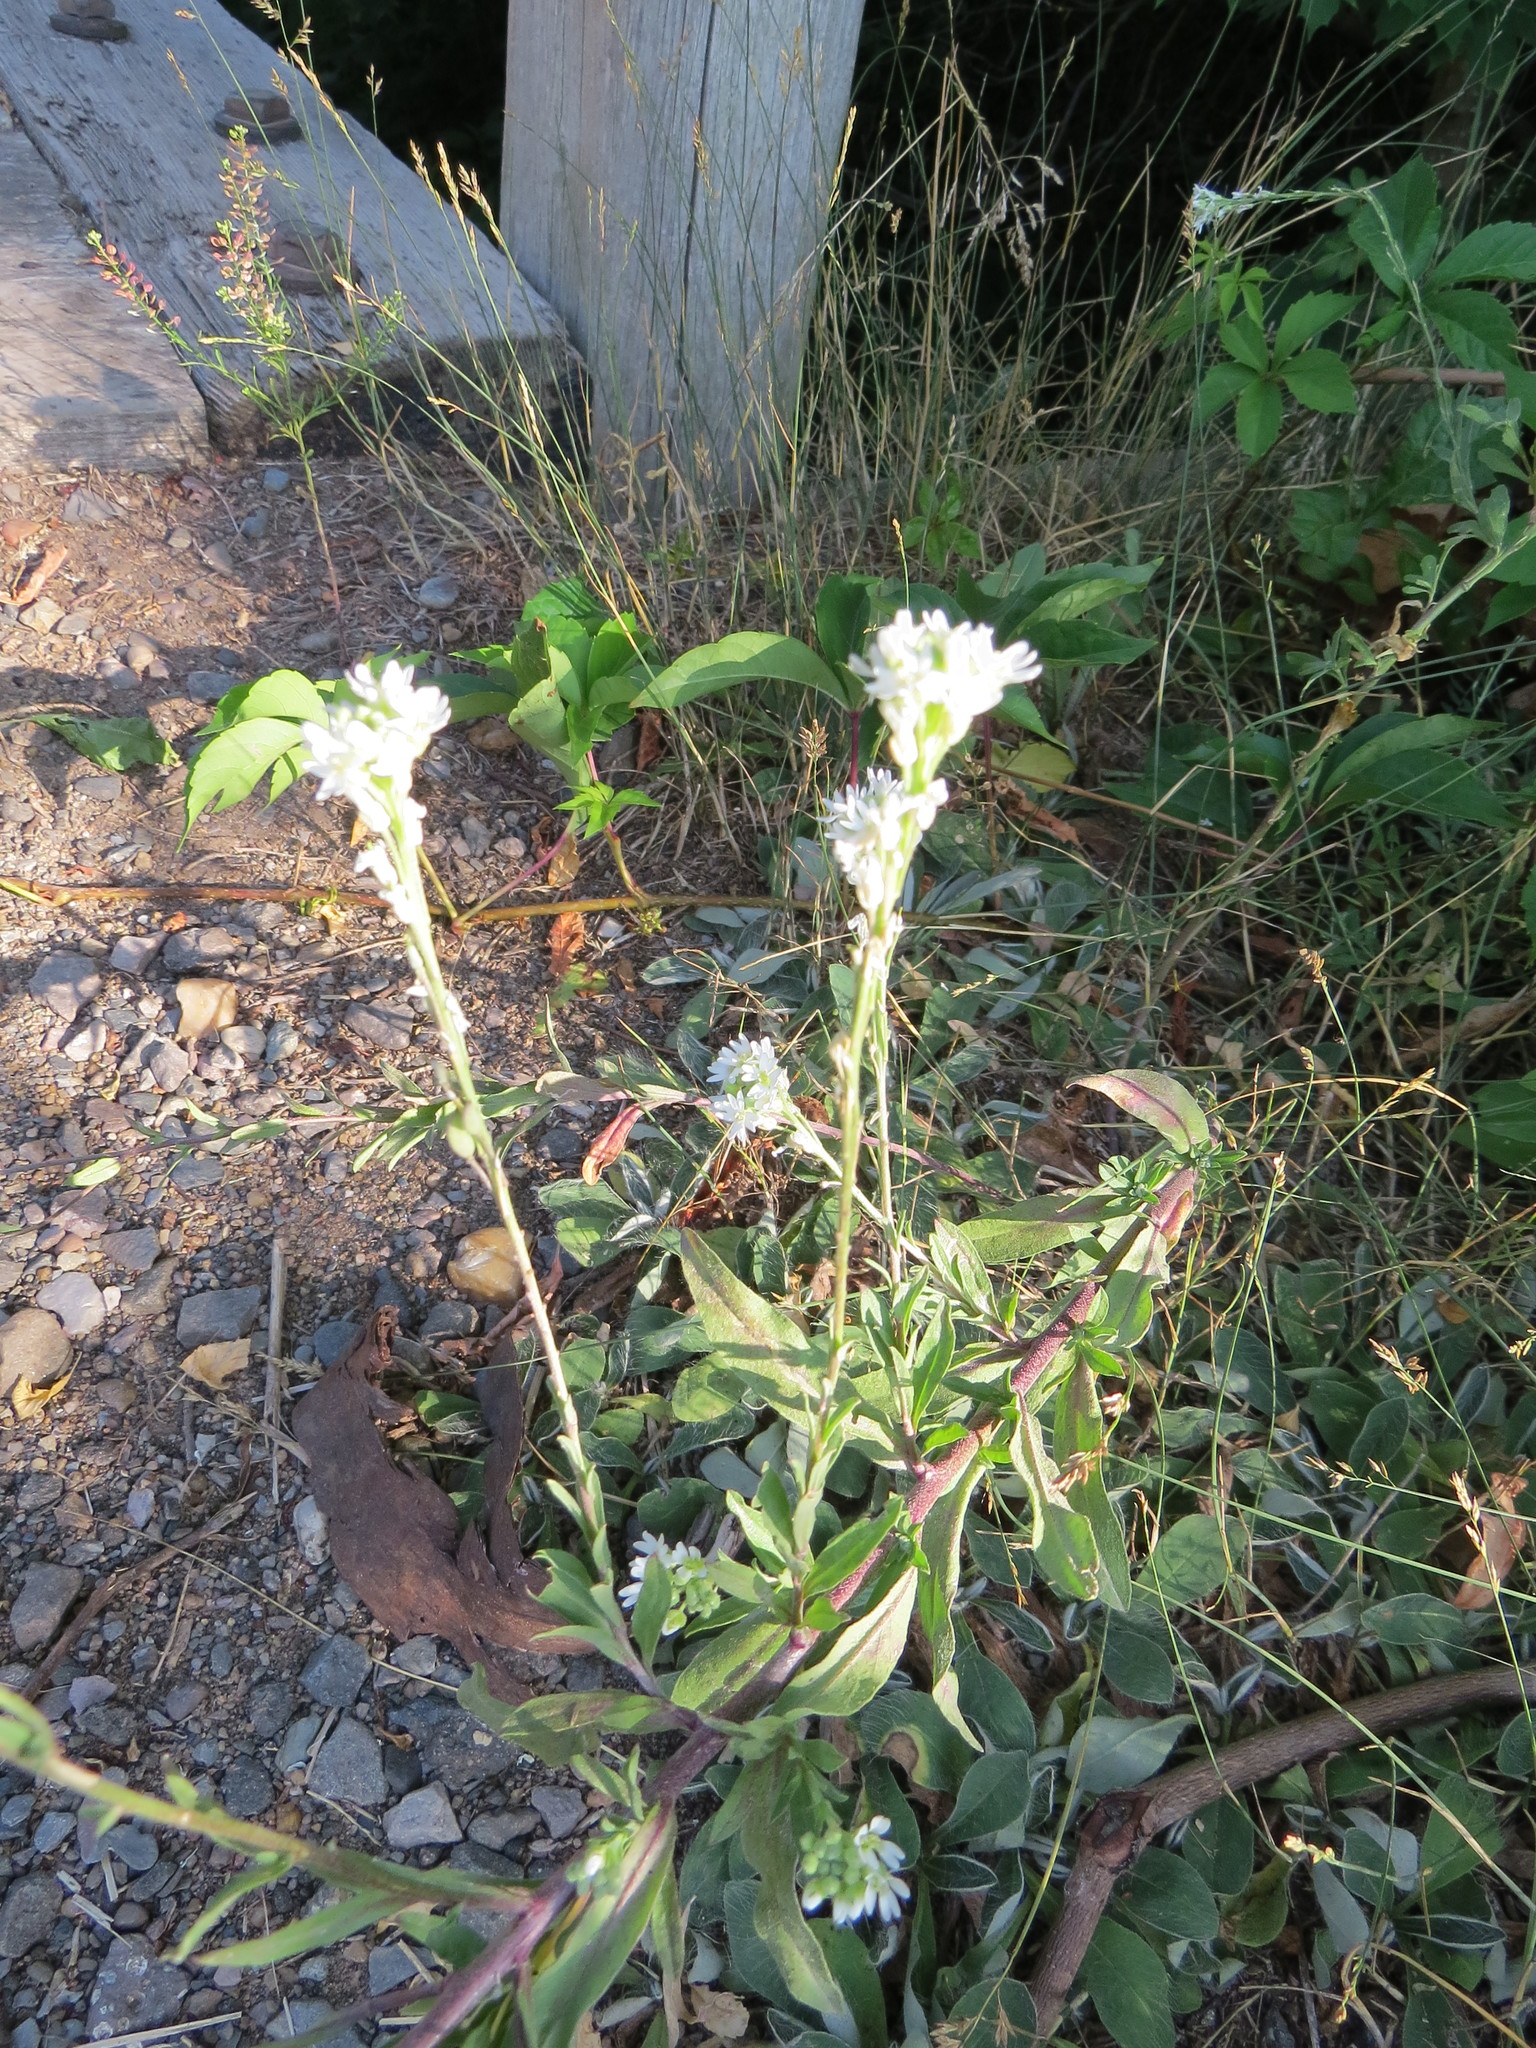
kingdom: Plantae
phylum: Tracheophyta
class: Magnoliopsida
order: Brassicales
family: Brassicaceae
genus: Berteroa
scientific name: Berteroa incana
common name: Hoary alison
